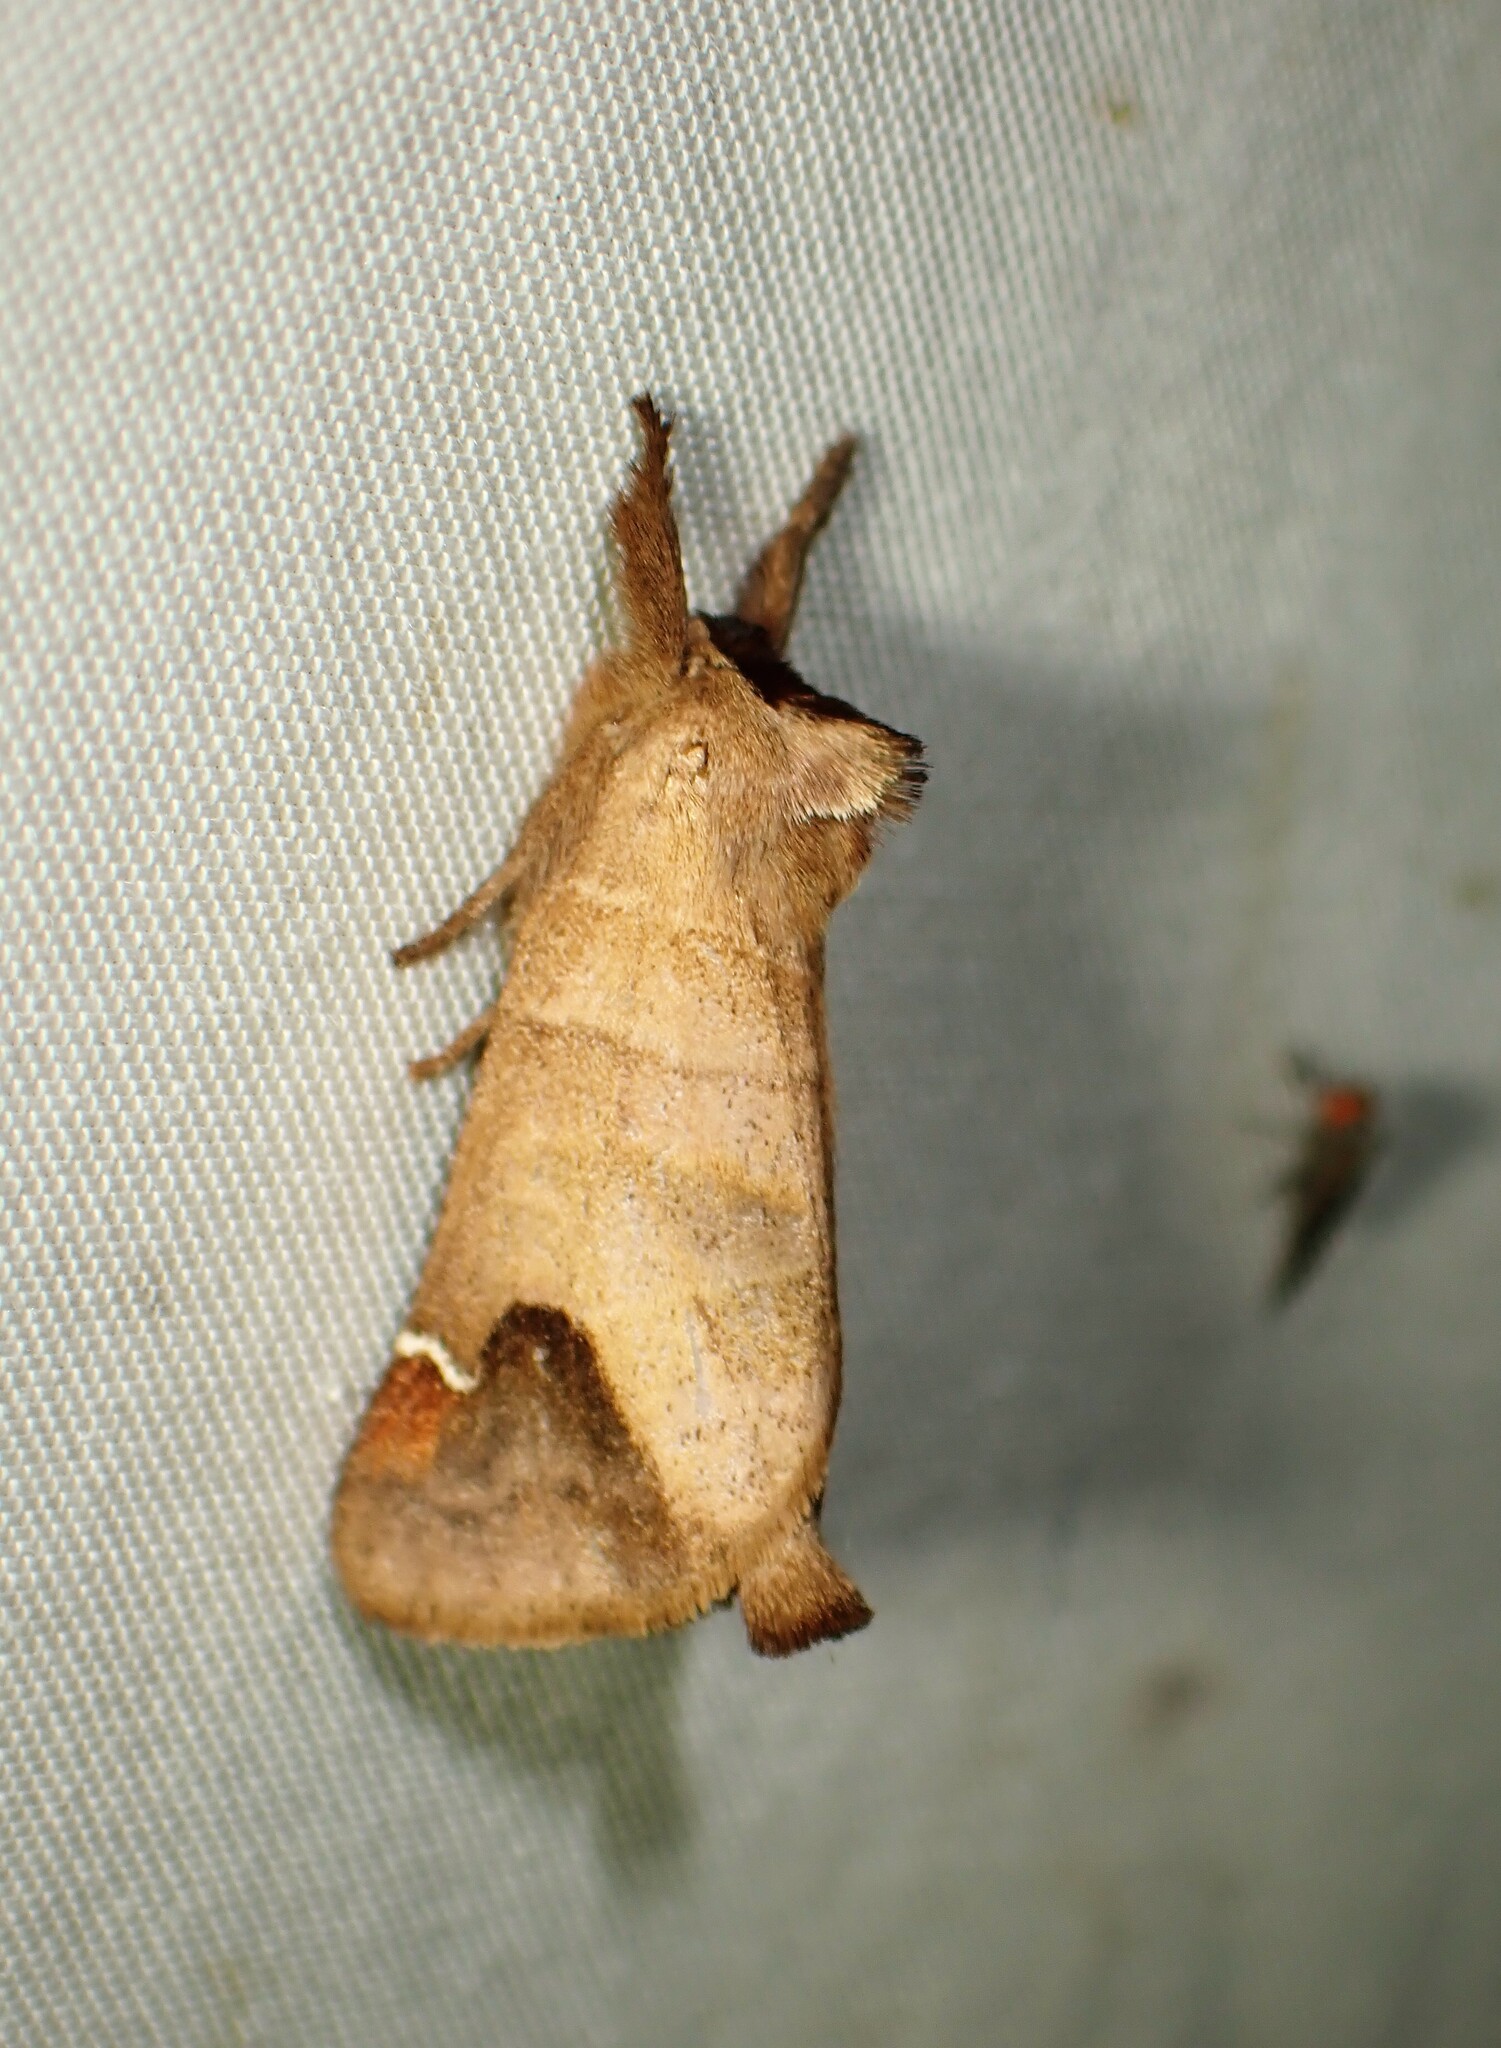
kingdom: Animalia
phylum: Arthropoda
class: Insecta
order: Lepidoptera
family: Notodontidae
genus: Clostera
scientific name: Clostera albosigma
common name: Sigmoid prominent
